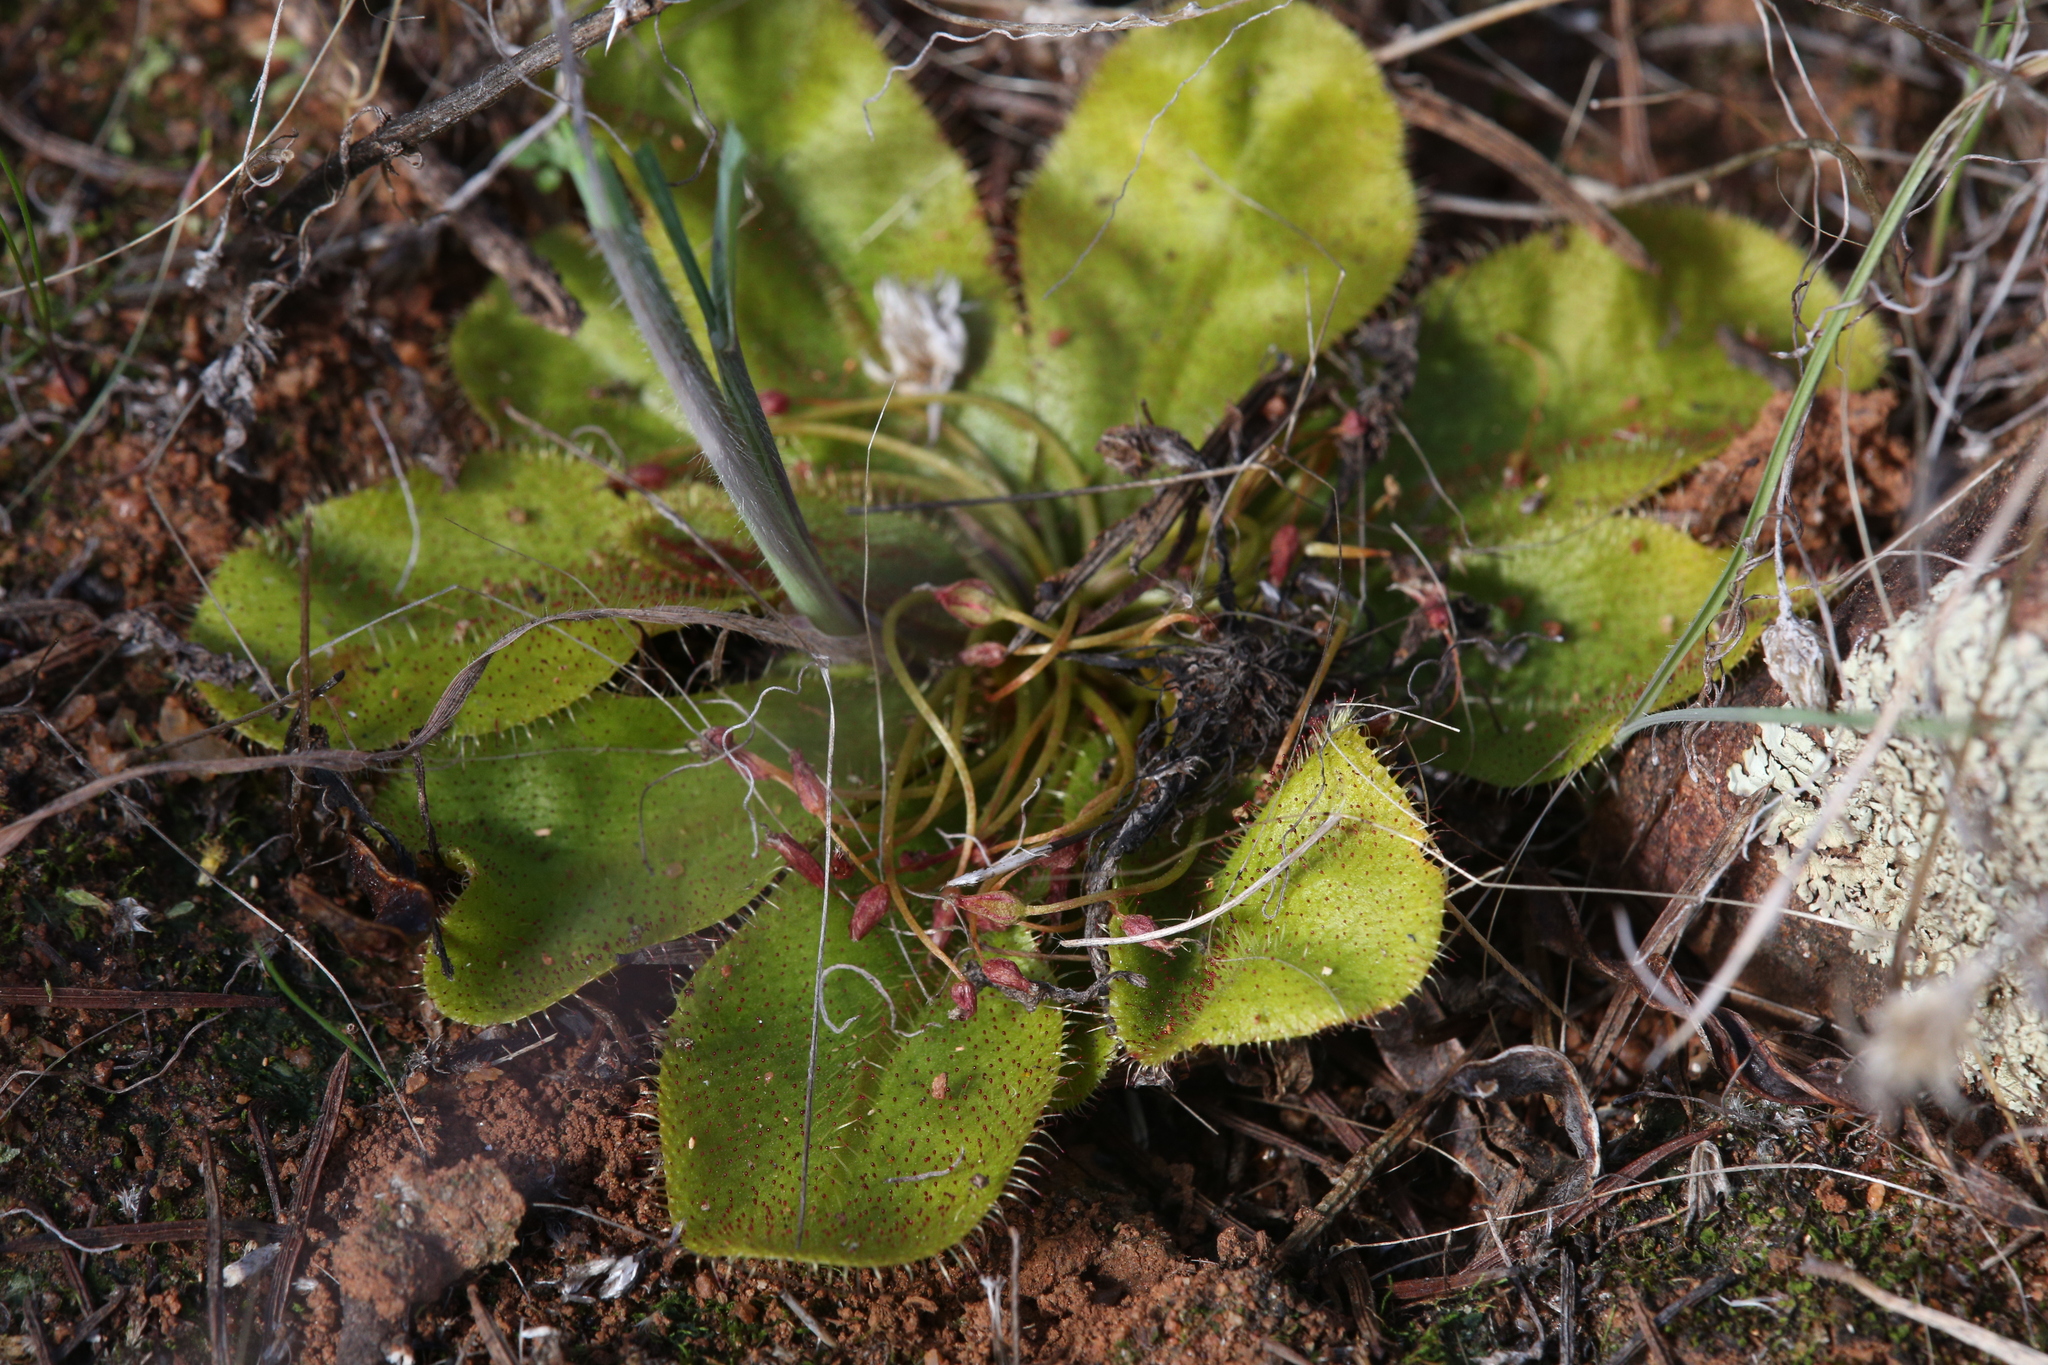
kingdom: Plantae
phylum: Tracheophyta
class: Magnoliopsida
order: Caryophyllales
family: Droseraceae
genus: Drosera
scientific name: Drosera bulbosa
